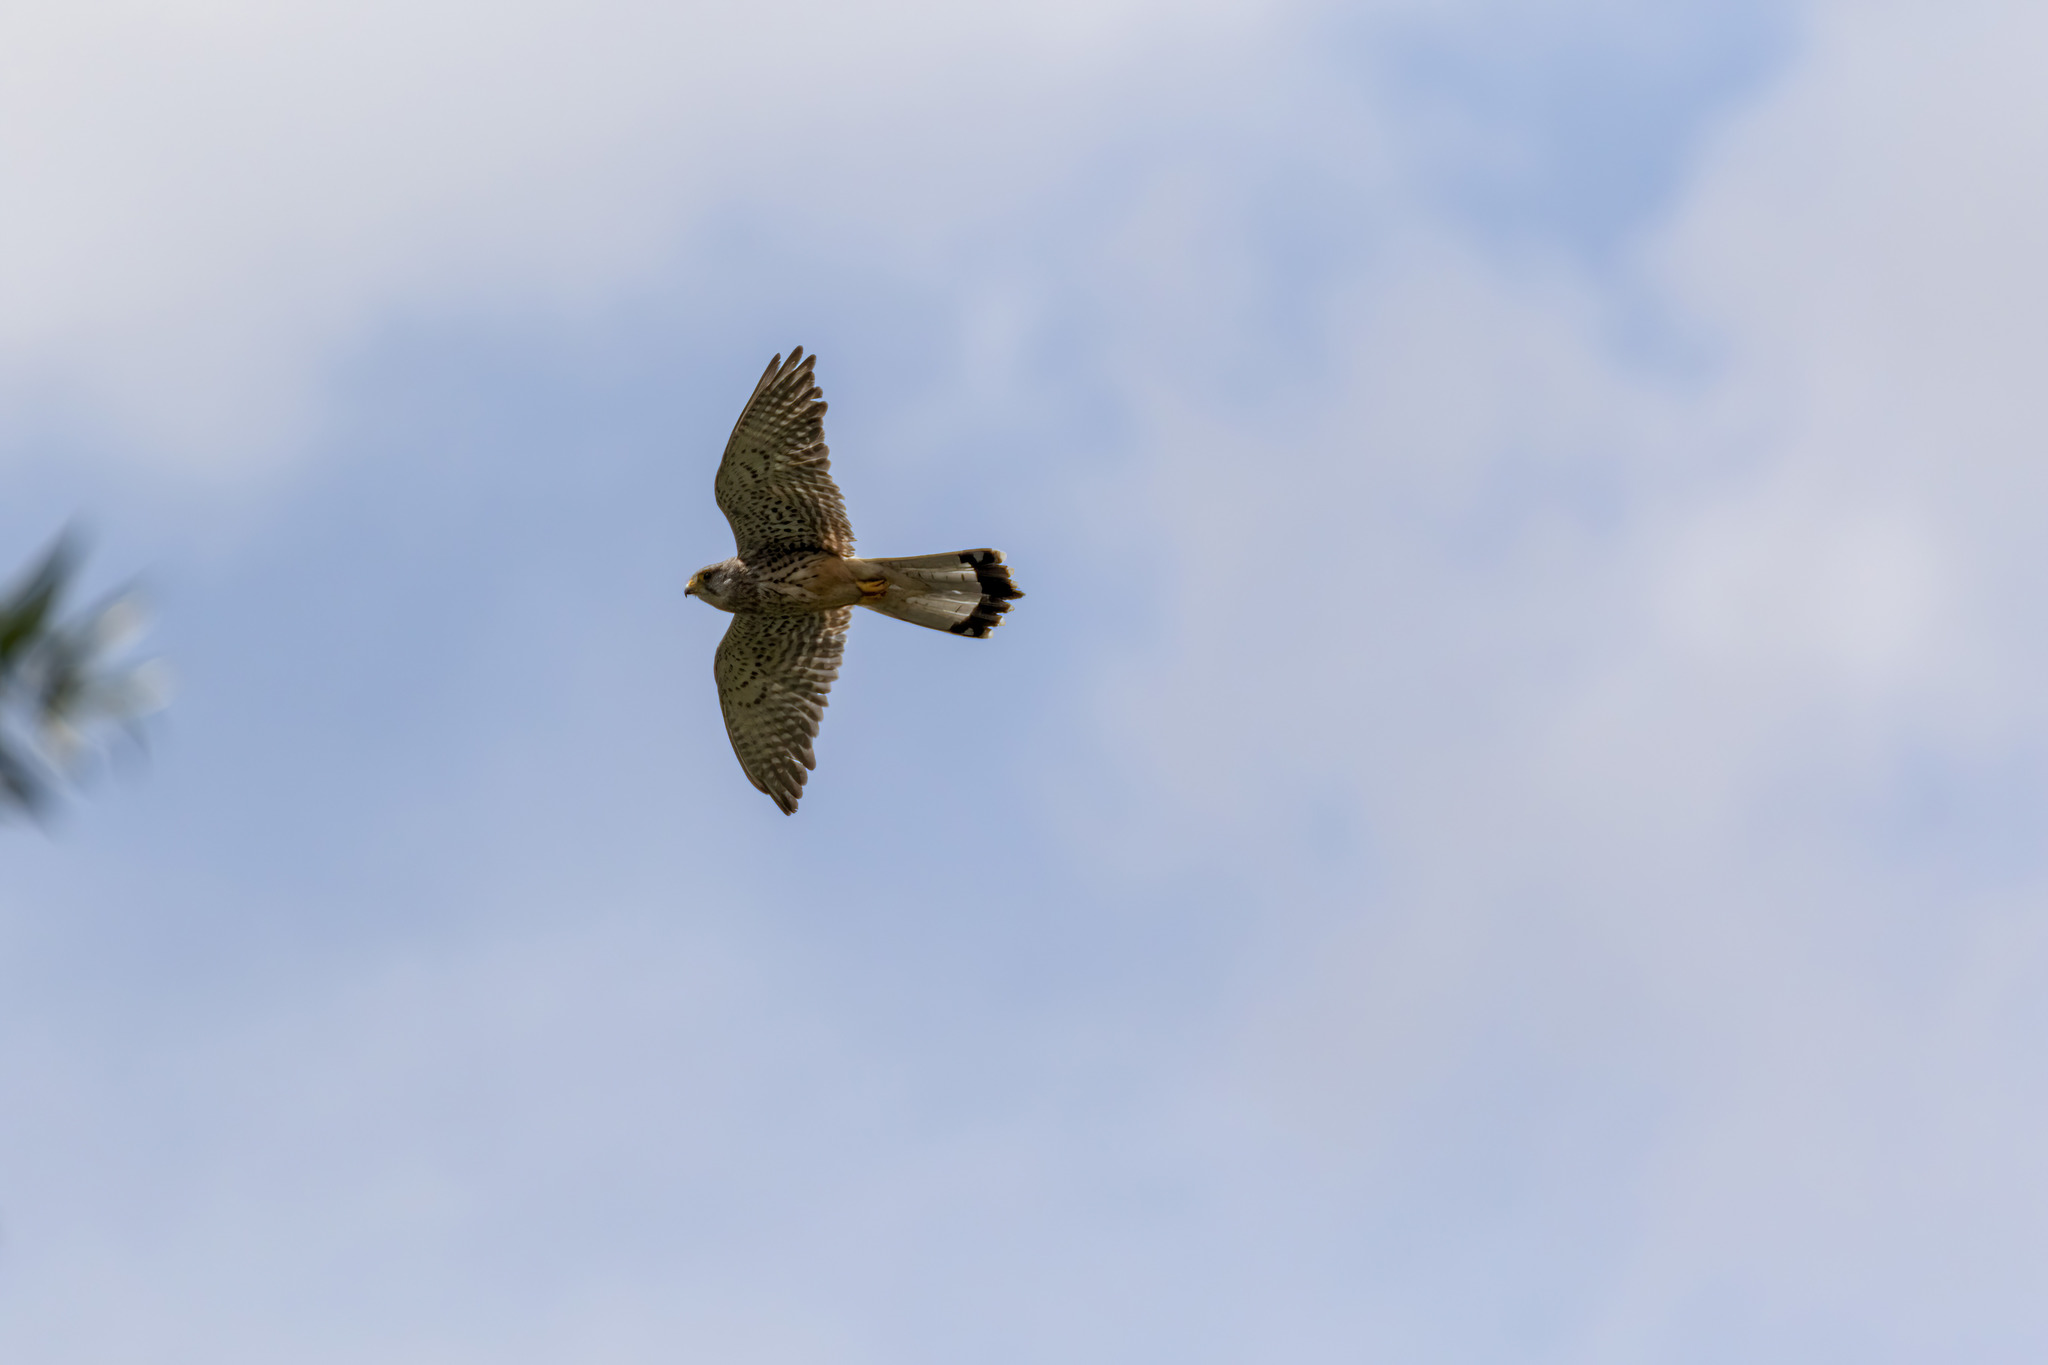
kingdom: Animalia
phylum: Chordata
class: Aves
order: Falconiformes
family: Falconidae
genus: Falco
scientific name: Falco tinnunculus
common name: Common kestrel
